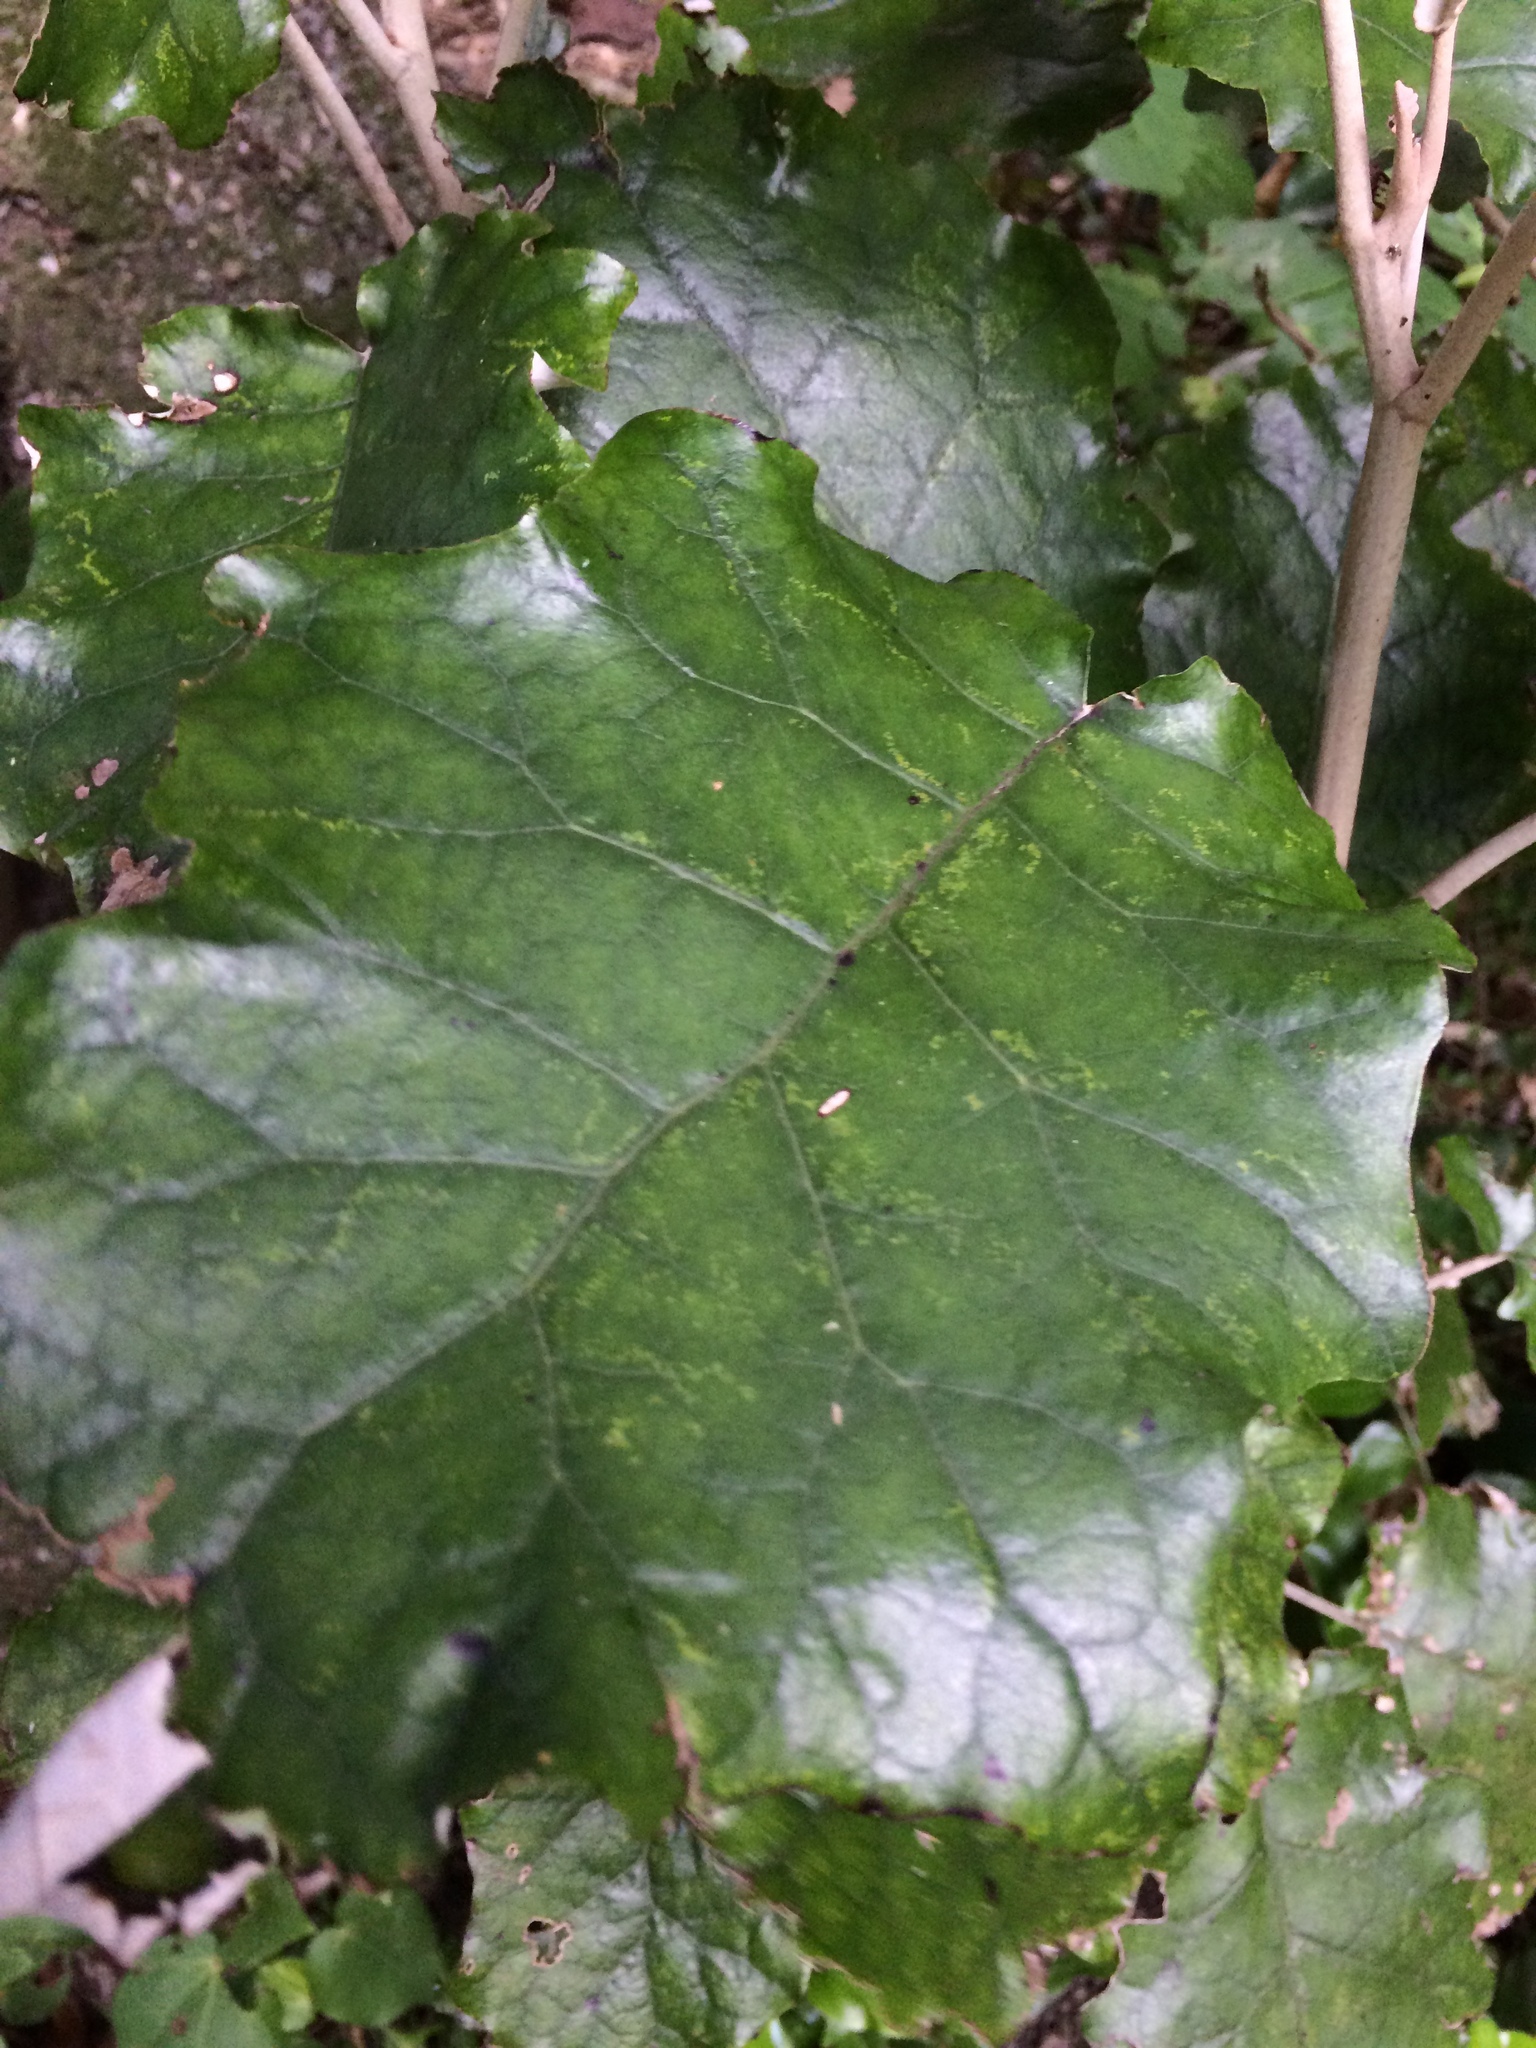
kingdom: Plantae
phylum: Tracheophyta
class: Magnoliopsida
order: Asterales
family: Asteraceae
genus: Brachyglottis
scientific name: Brachyglottis repanda
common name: Hedge ragwort
